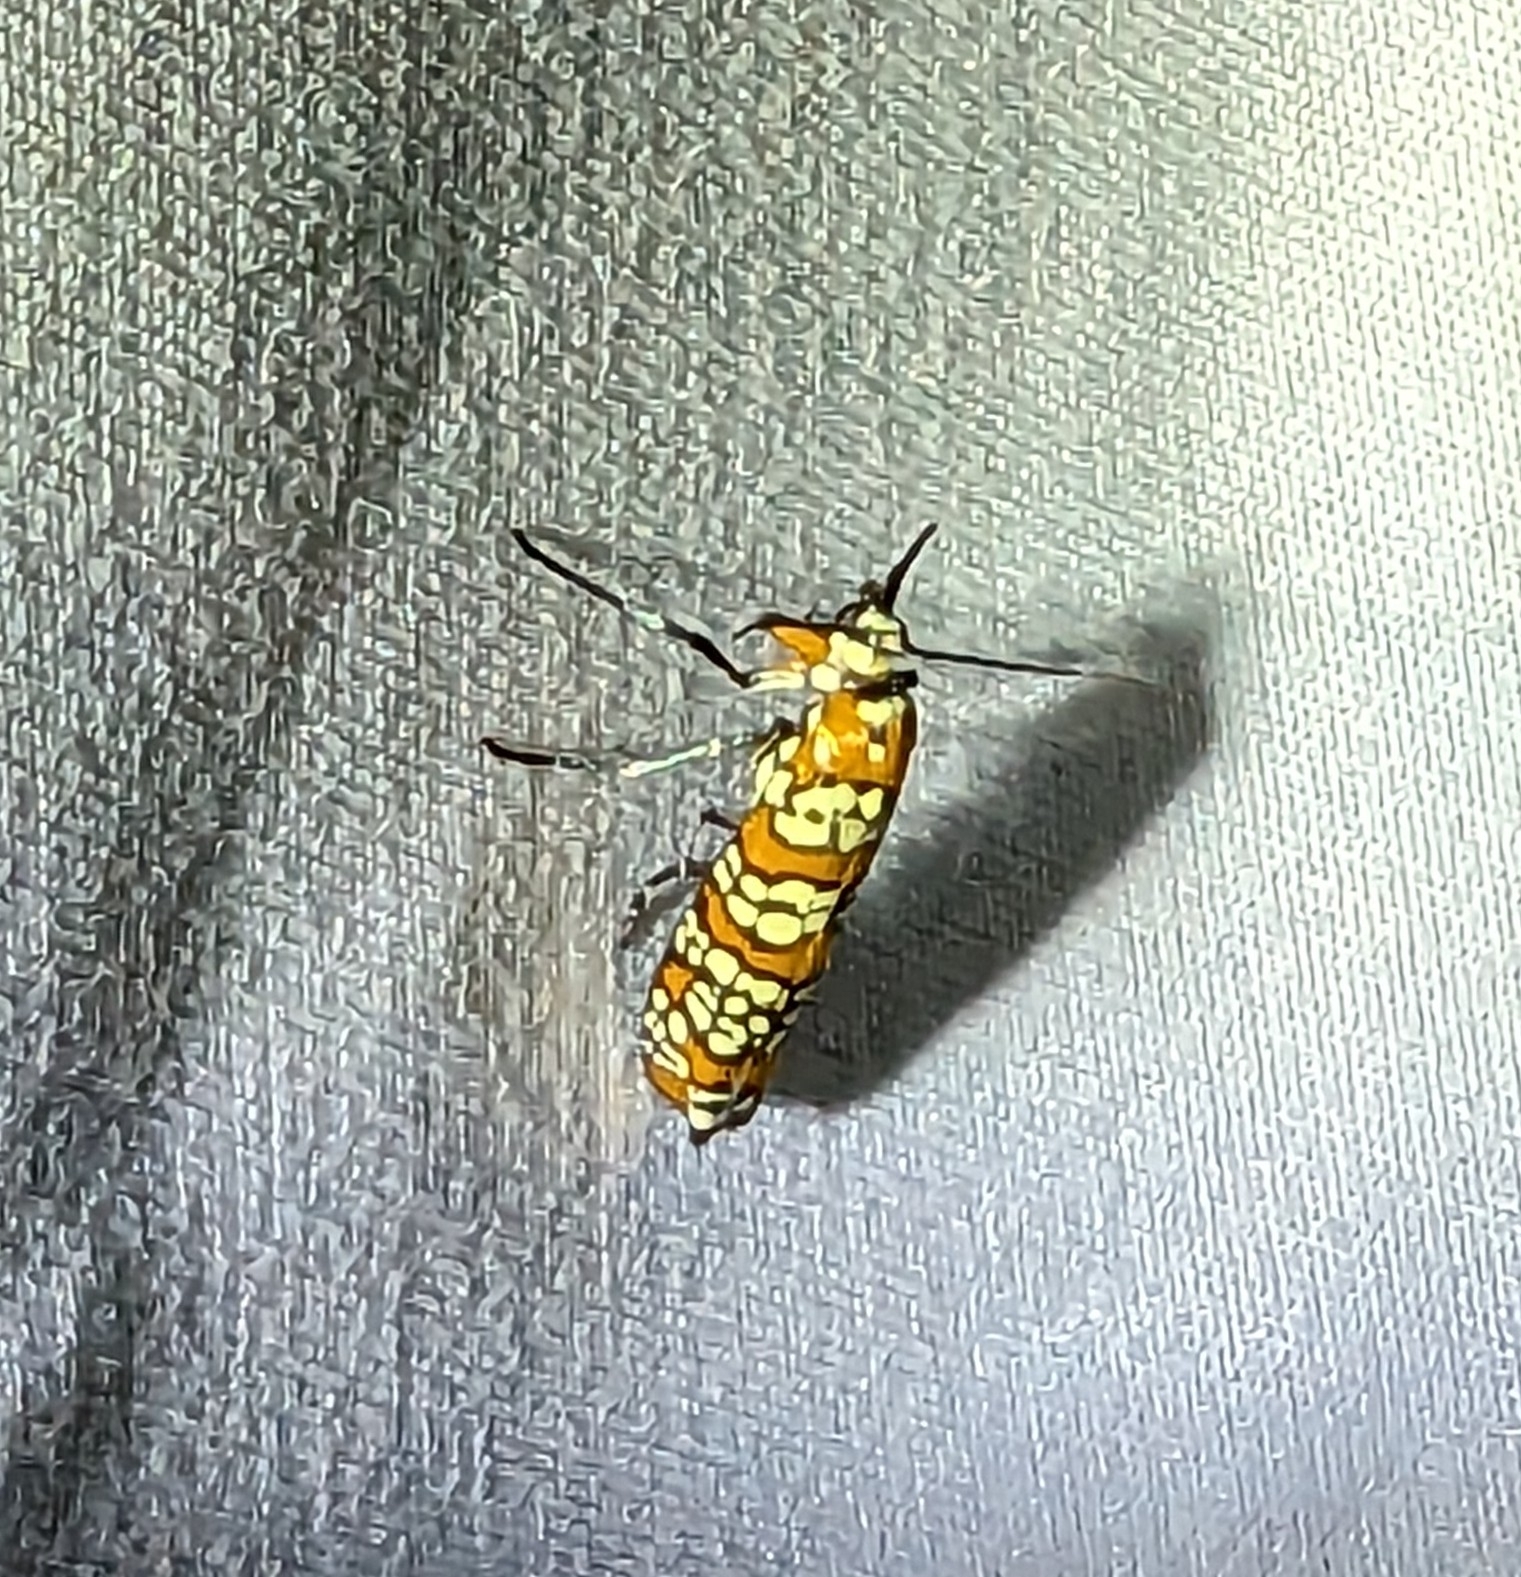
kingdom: Animalia
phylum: Arthropoda
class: Insecta
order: Lepidoptera
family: Attevidae
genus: Atteva
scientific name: Atteva punctella
